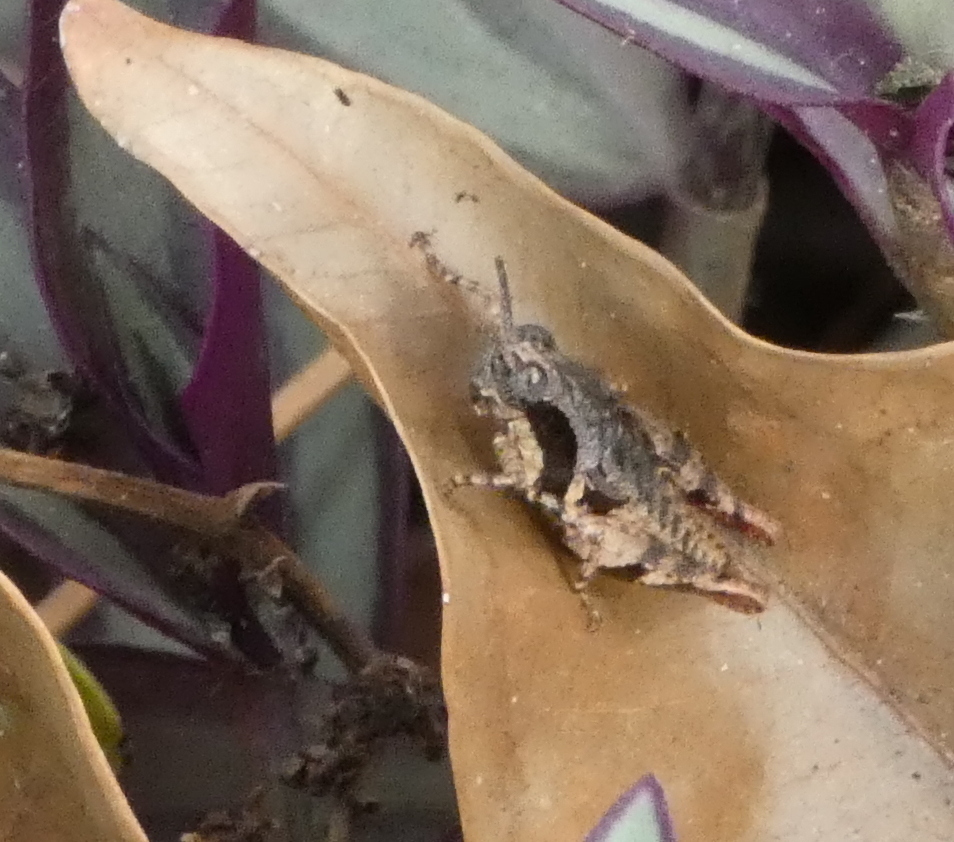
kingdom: Animalia
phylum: Arthropoda
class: Insecta
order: Orthoptera
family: Acrididae
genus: Eujivarus
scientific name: Eujivarus meridionalis
